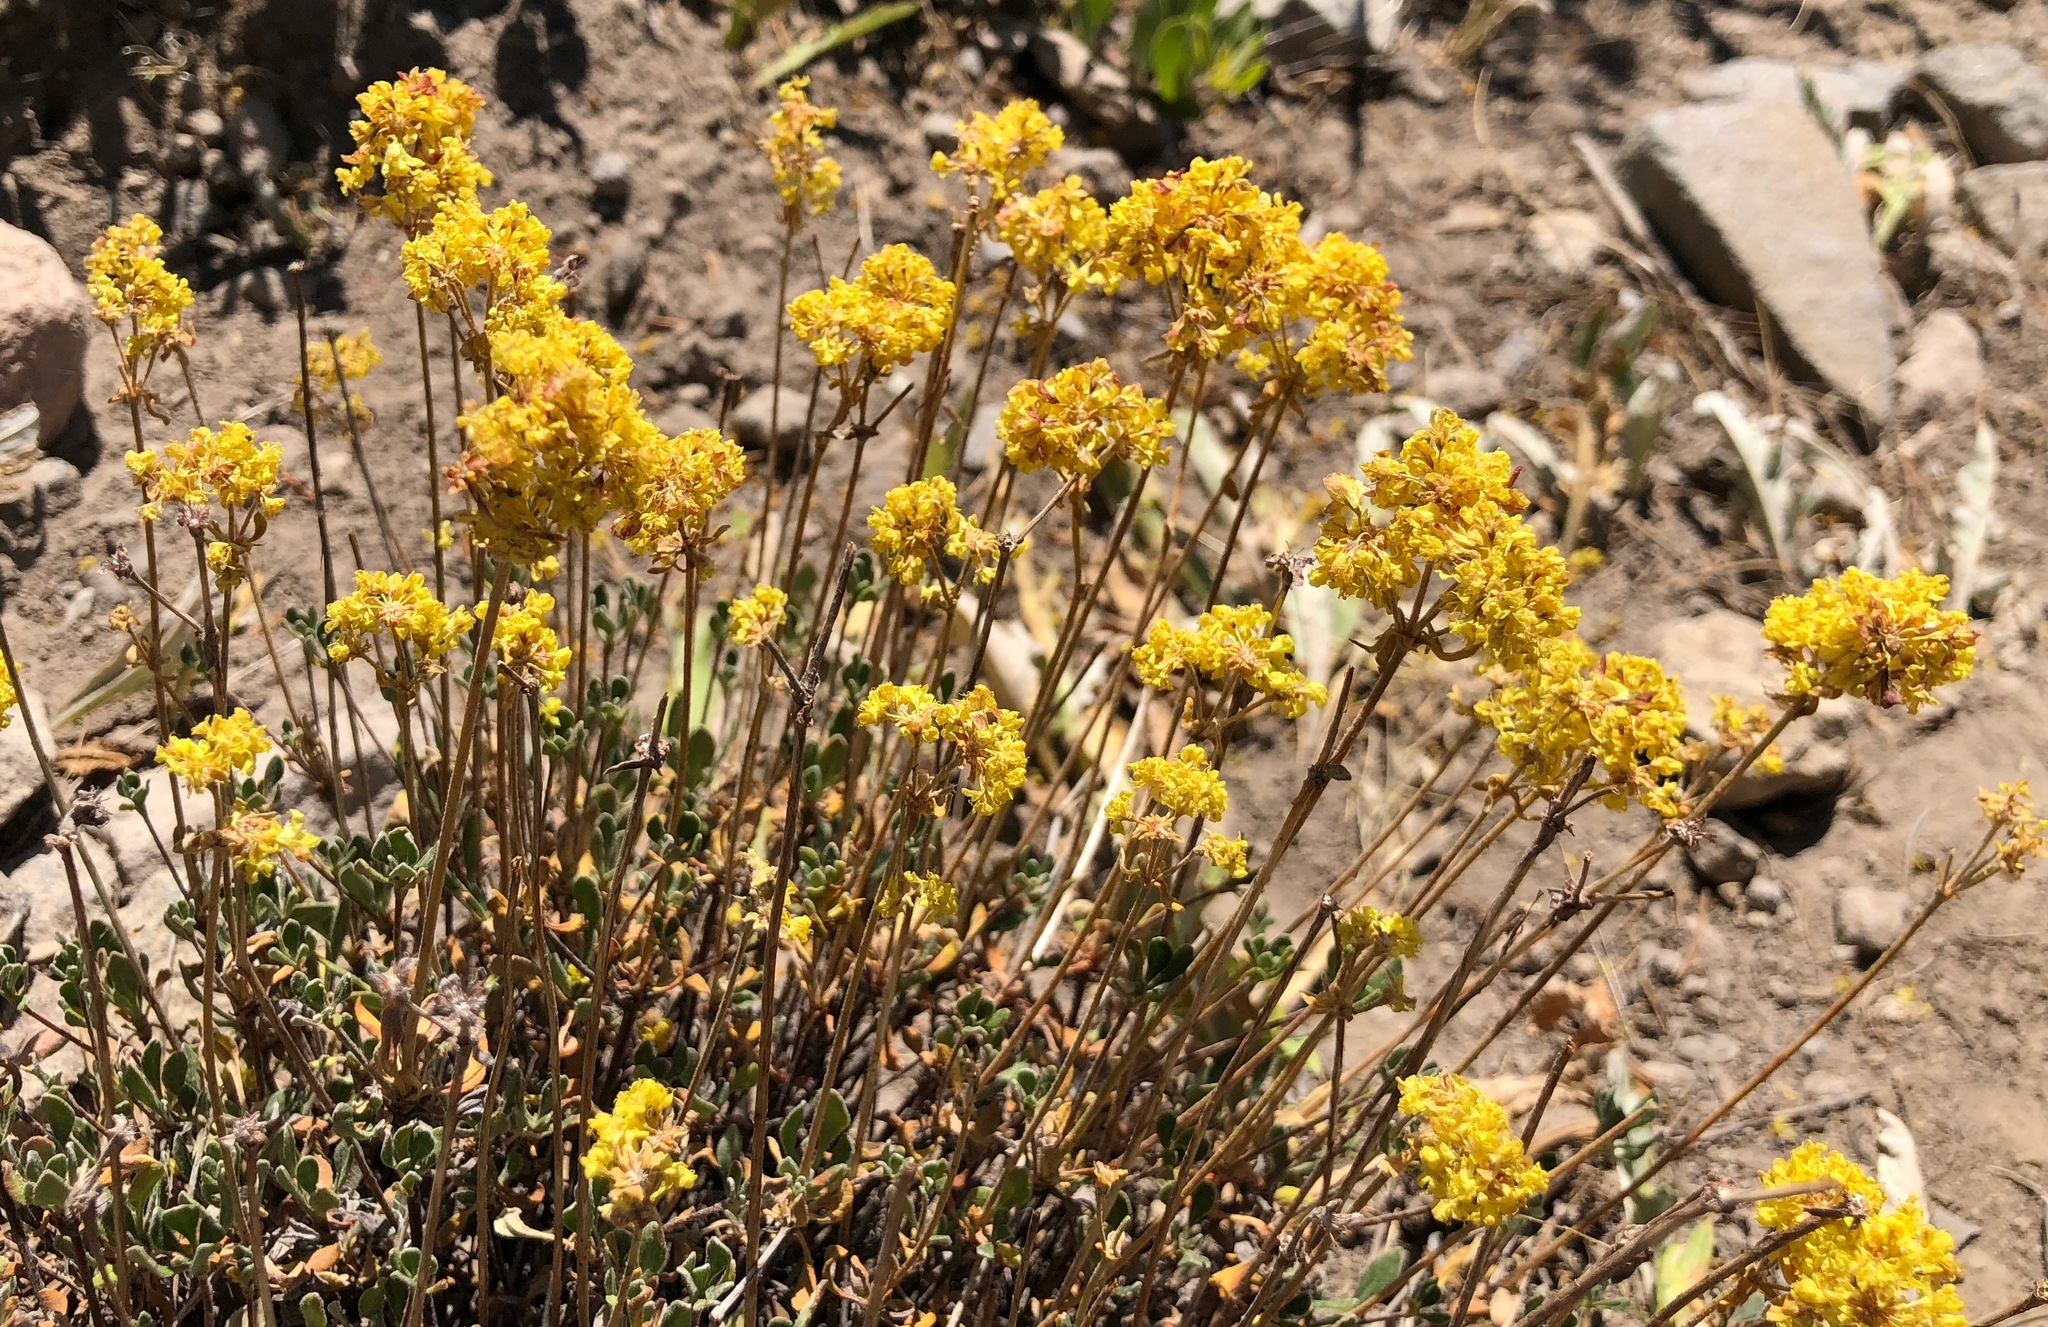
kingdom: Plantae
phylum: Tracheophyta
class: Magnoliopsida
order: Caryophyllales
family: Polygonaceae
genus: Eriogonum
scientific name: Eriogonum umbellatum
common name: Sulfur-buckwheat
